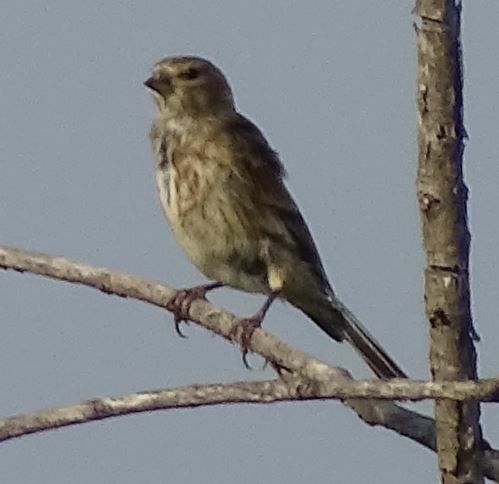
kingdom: Animalia
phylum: Chordata
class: Aves
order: Passeriformes
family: Fringillidae
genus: Linaria
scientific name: Linaria cannabina
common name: Common linnet
